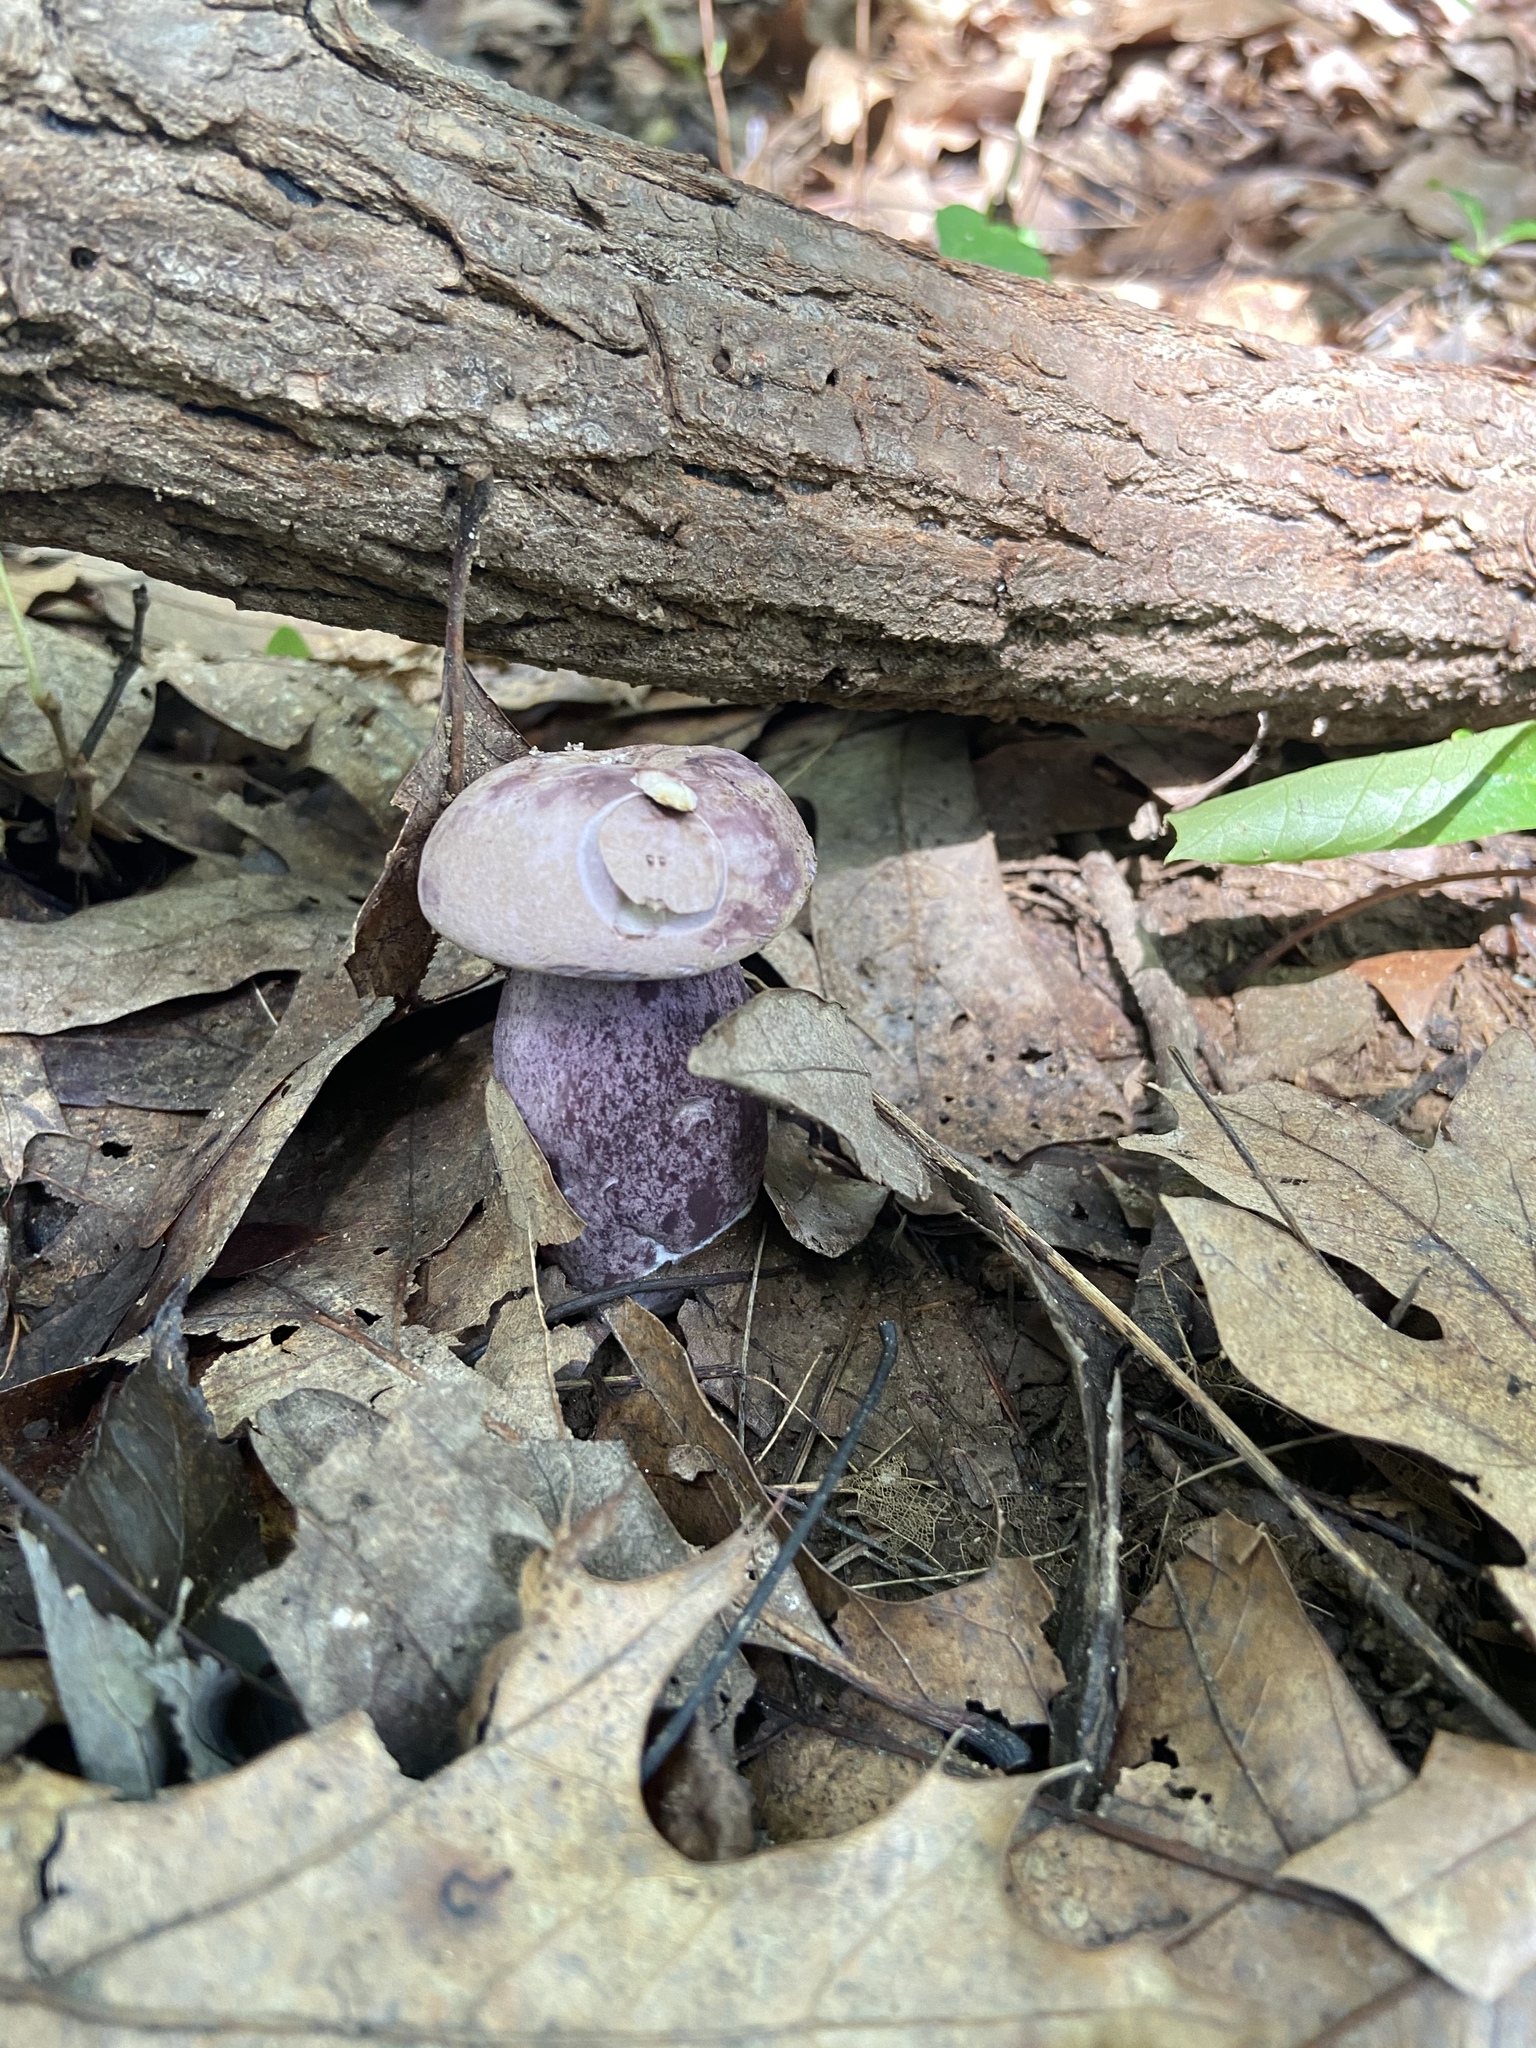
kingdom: Fungi
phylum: Basidiomycota
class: Agaricomycetes
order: Boletales
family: Boletaceae
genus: Tylopilus
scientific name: Tylopilus plumbeoviolaceus
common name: Violet gray bolete
